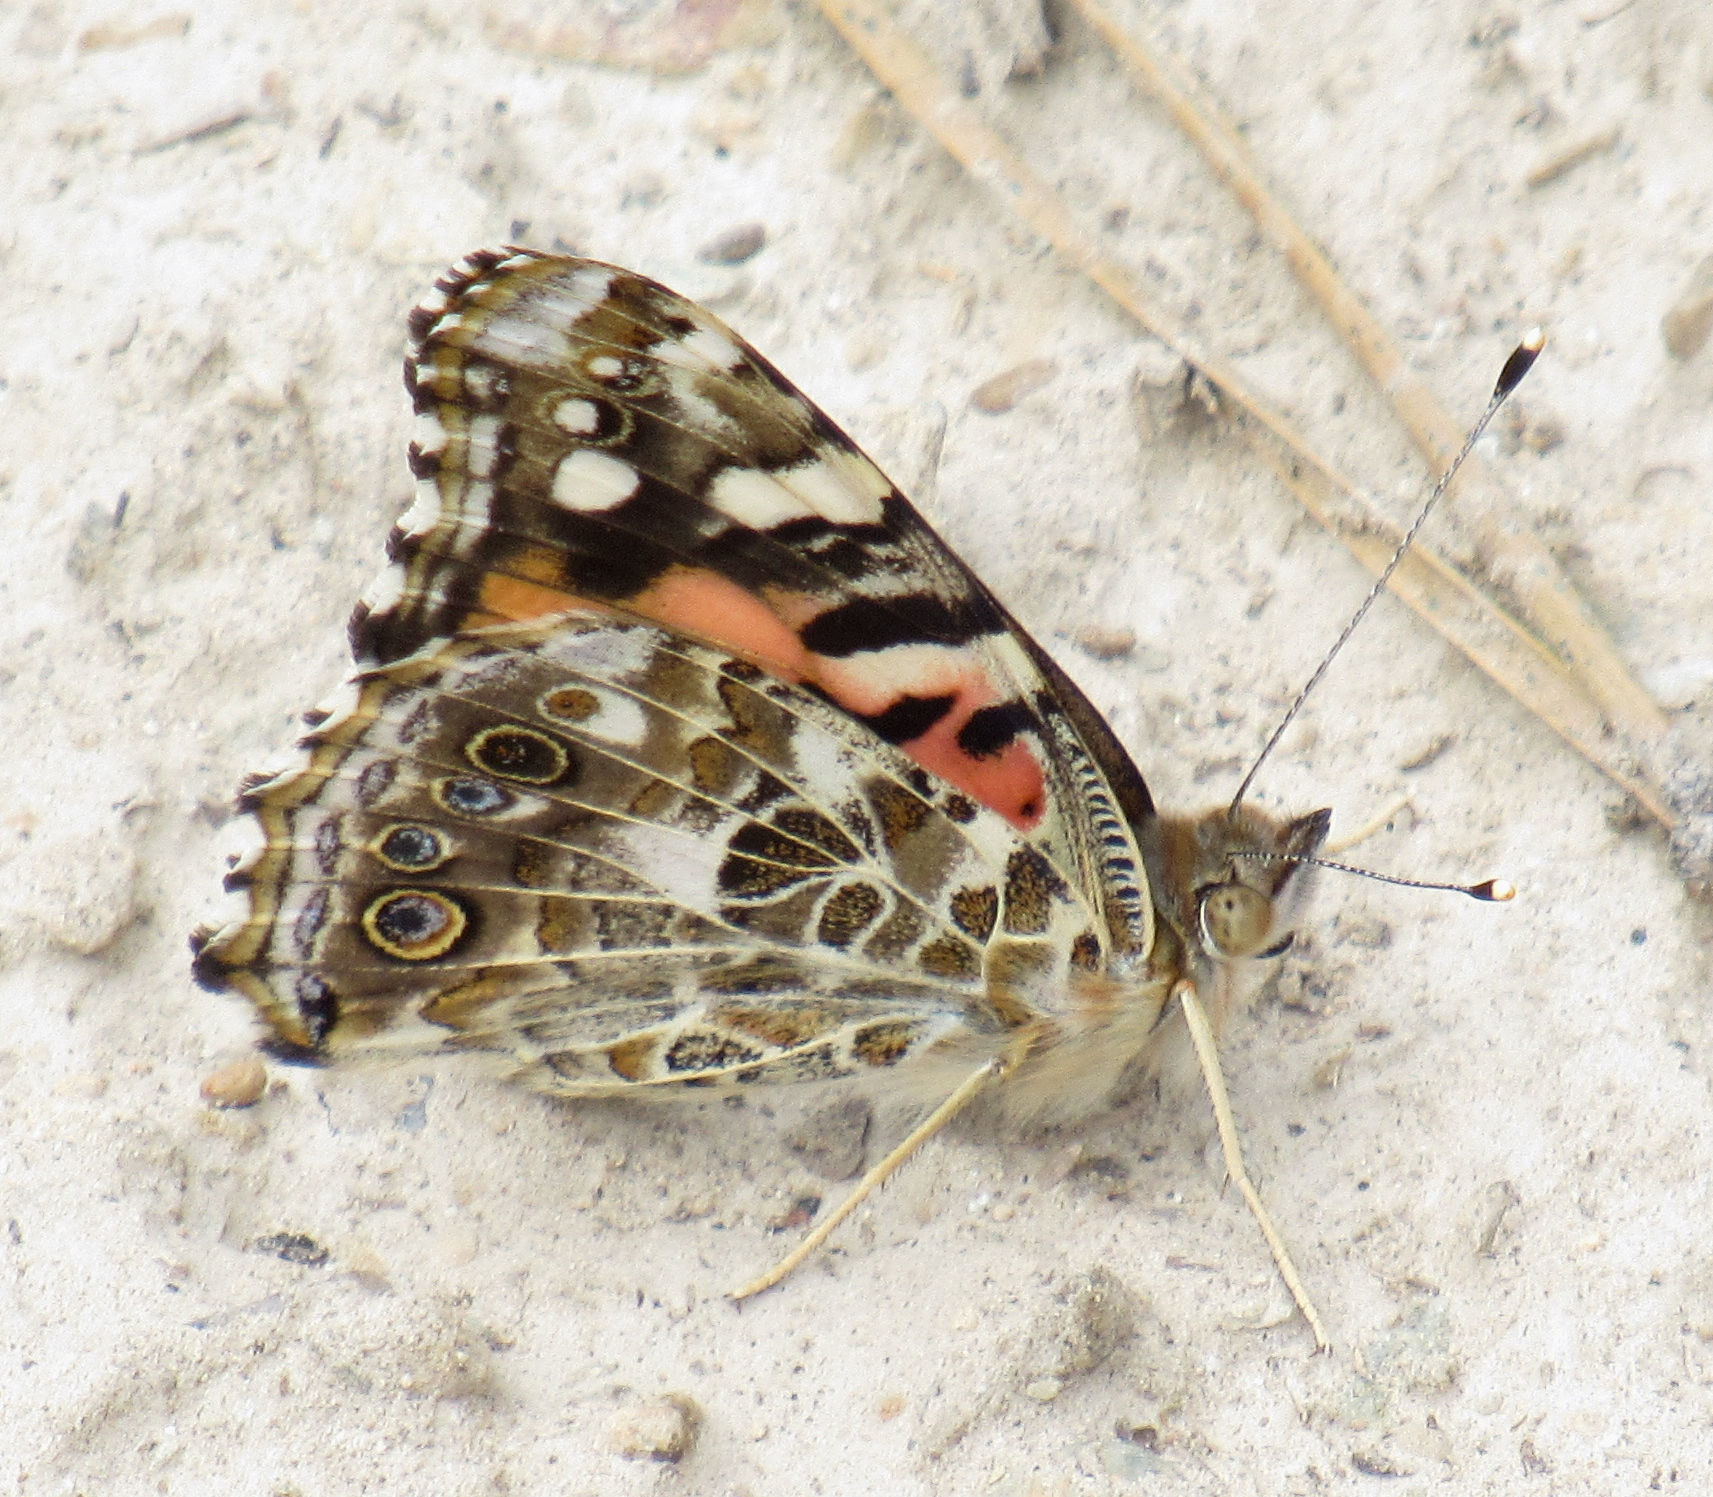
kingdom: Animalia
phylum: Arthropoda
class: Insecta
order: Lepidoptera
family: Nymphalidae
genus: Vanessa
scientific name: Vanessa cardui
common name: Painted lady
